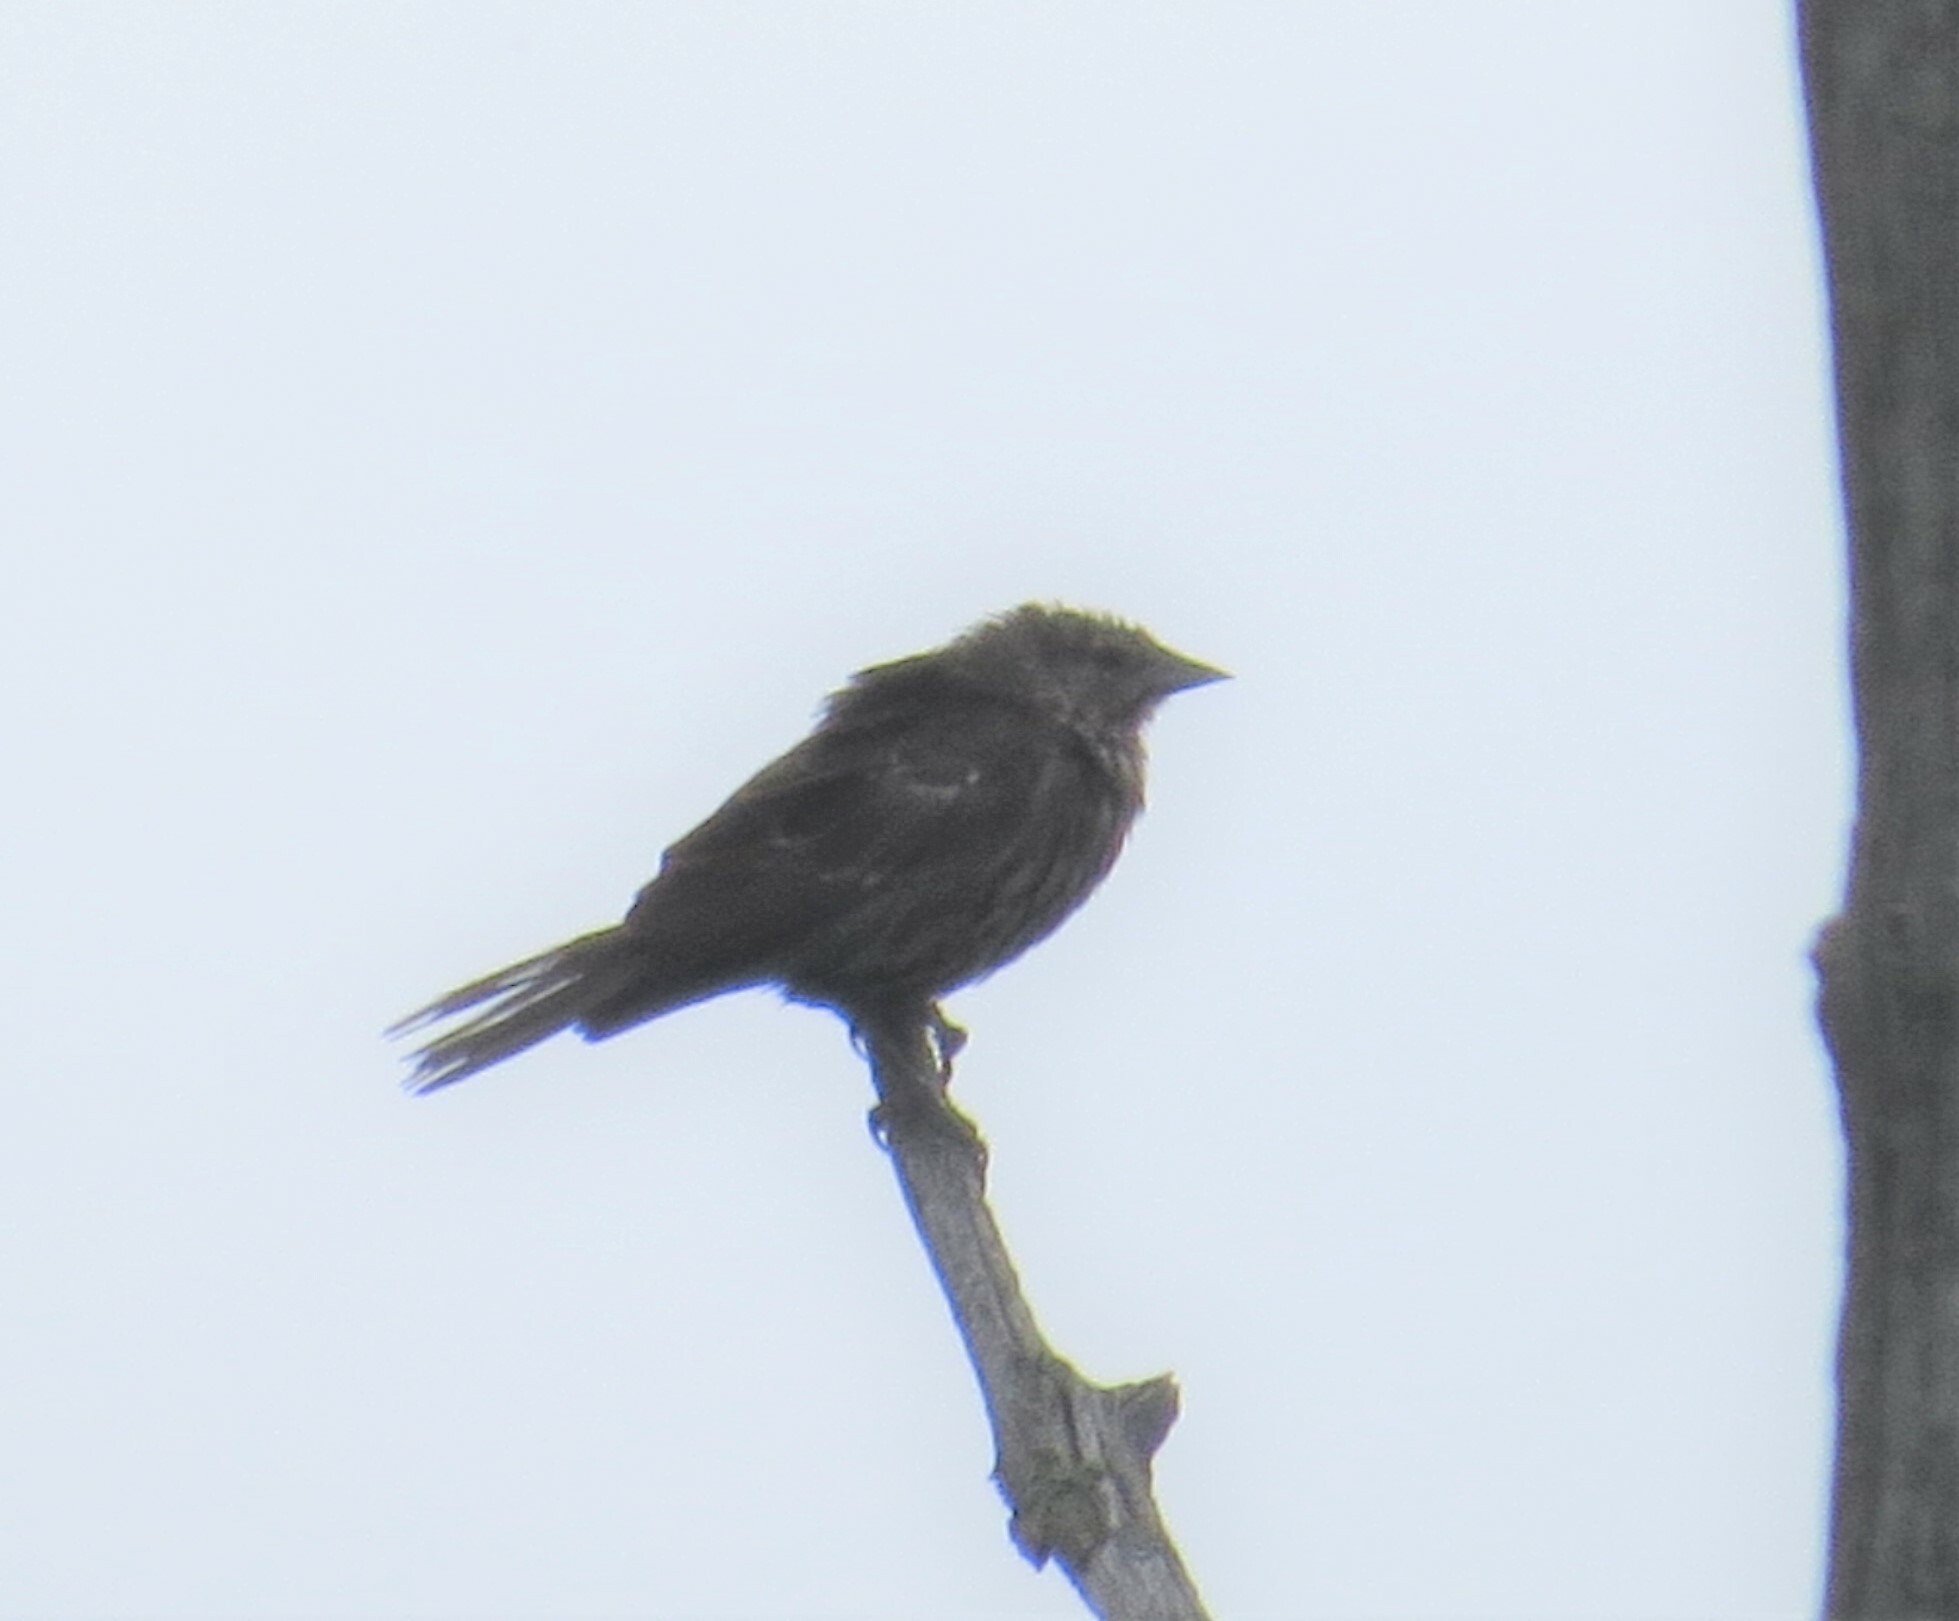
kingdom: Animalia
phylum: Chordata
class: Aves
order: Passeriformes
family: Icteridae
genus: Agelaius
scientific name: Agelaius phoeniceus
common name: Red-winged blackbird
